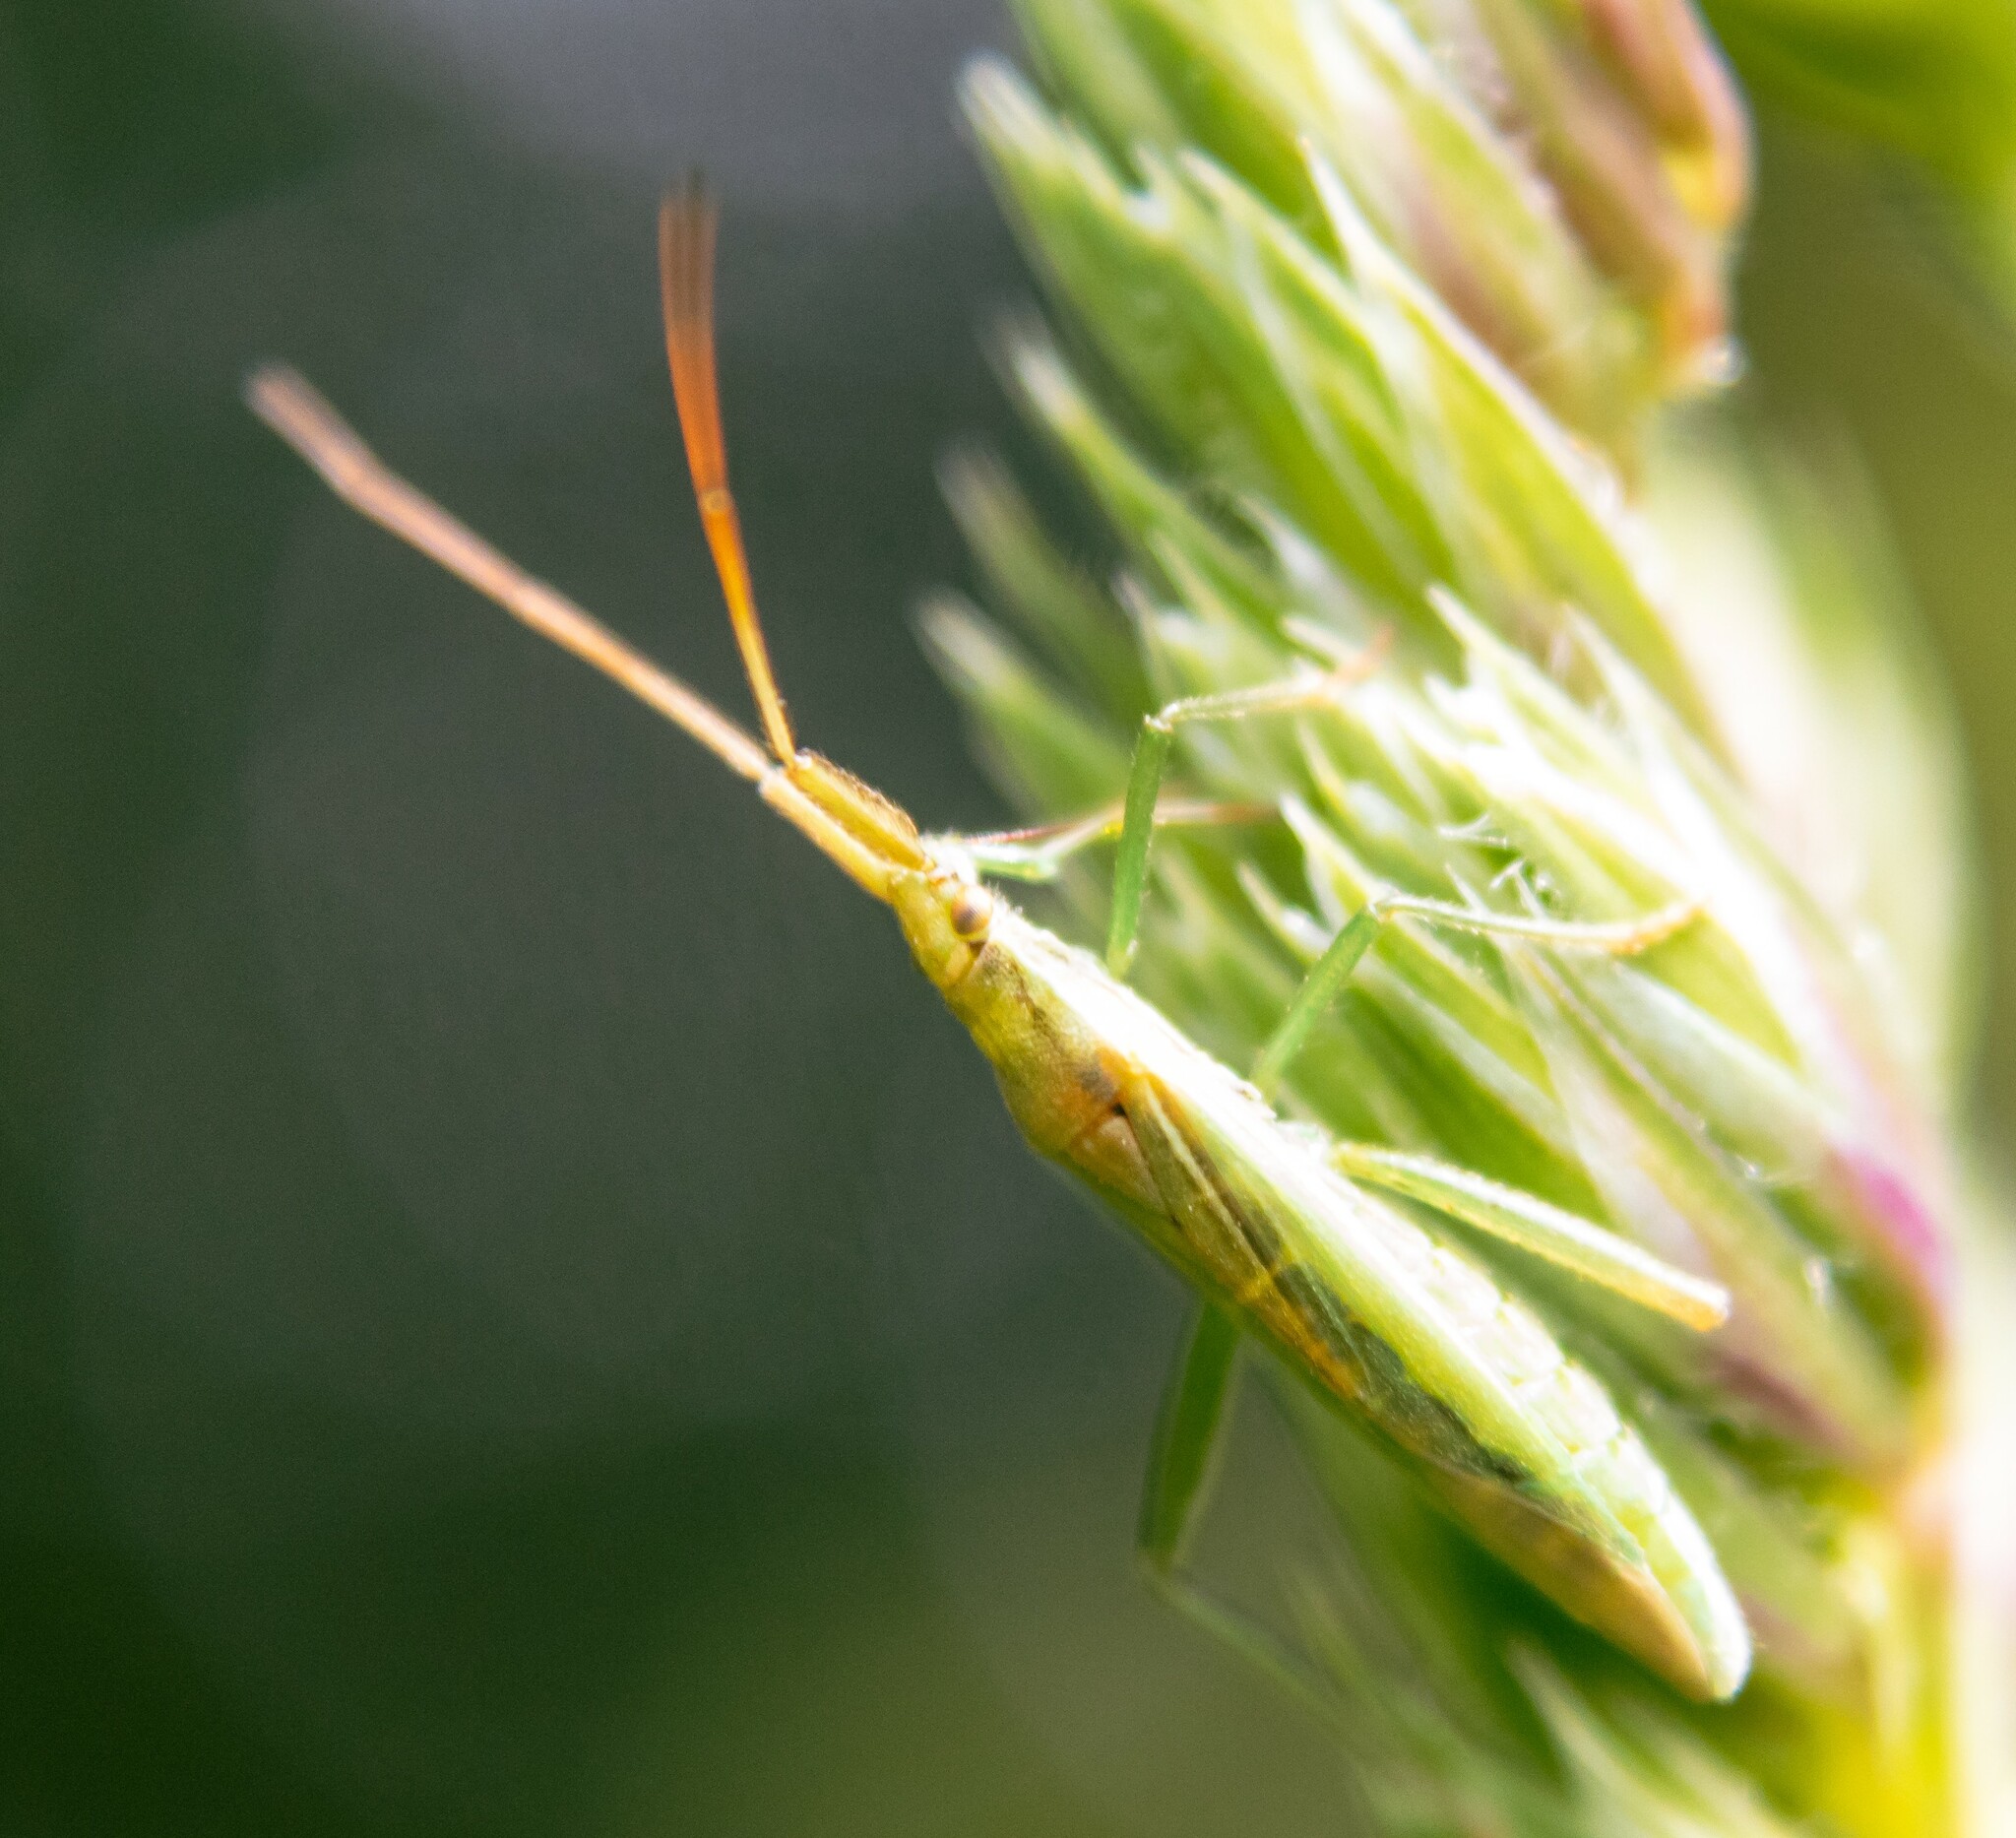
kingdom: Animalia
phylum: Arthropoda
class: Insecta
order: Hemiptera
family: Miridae
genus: Stenodema
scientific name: Stenodema laevigata
